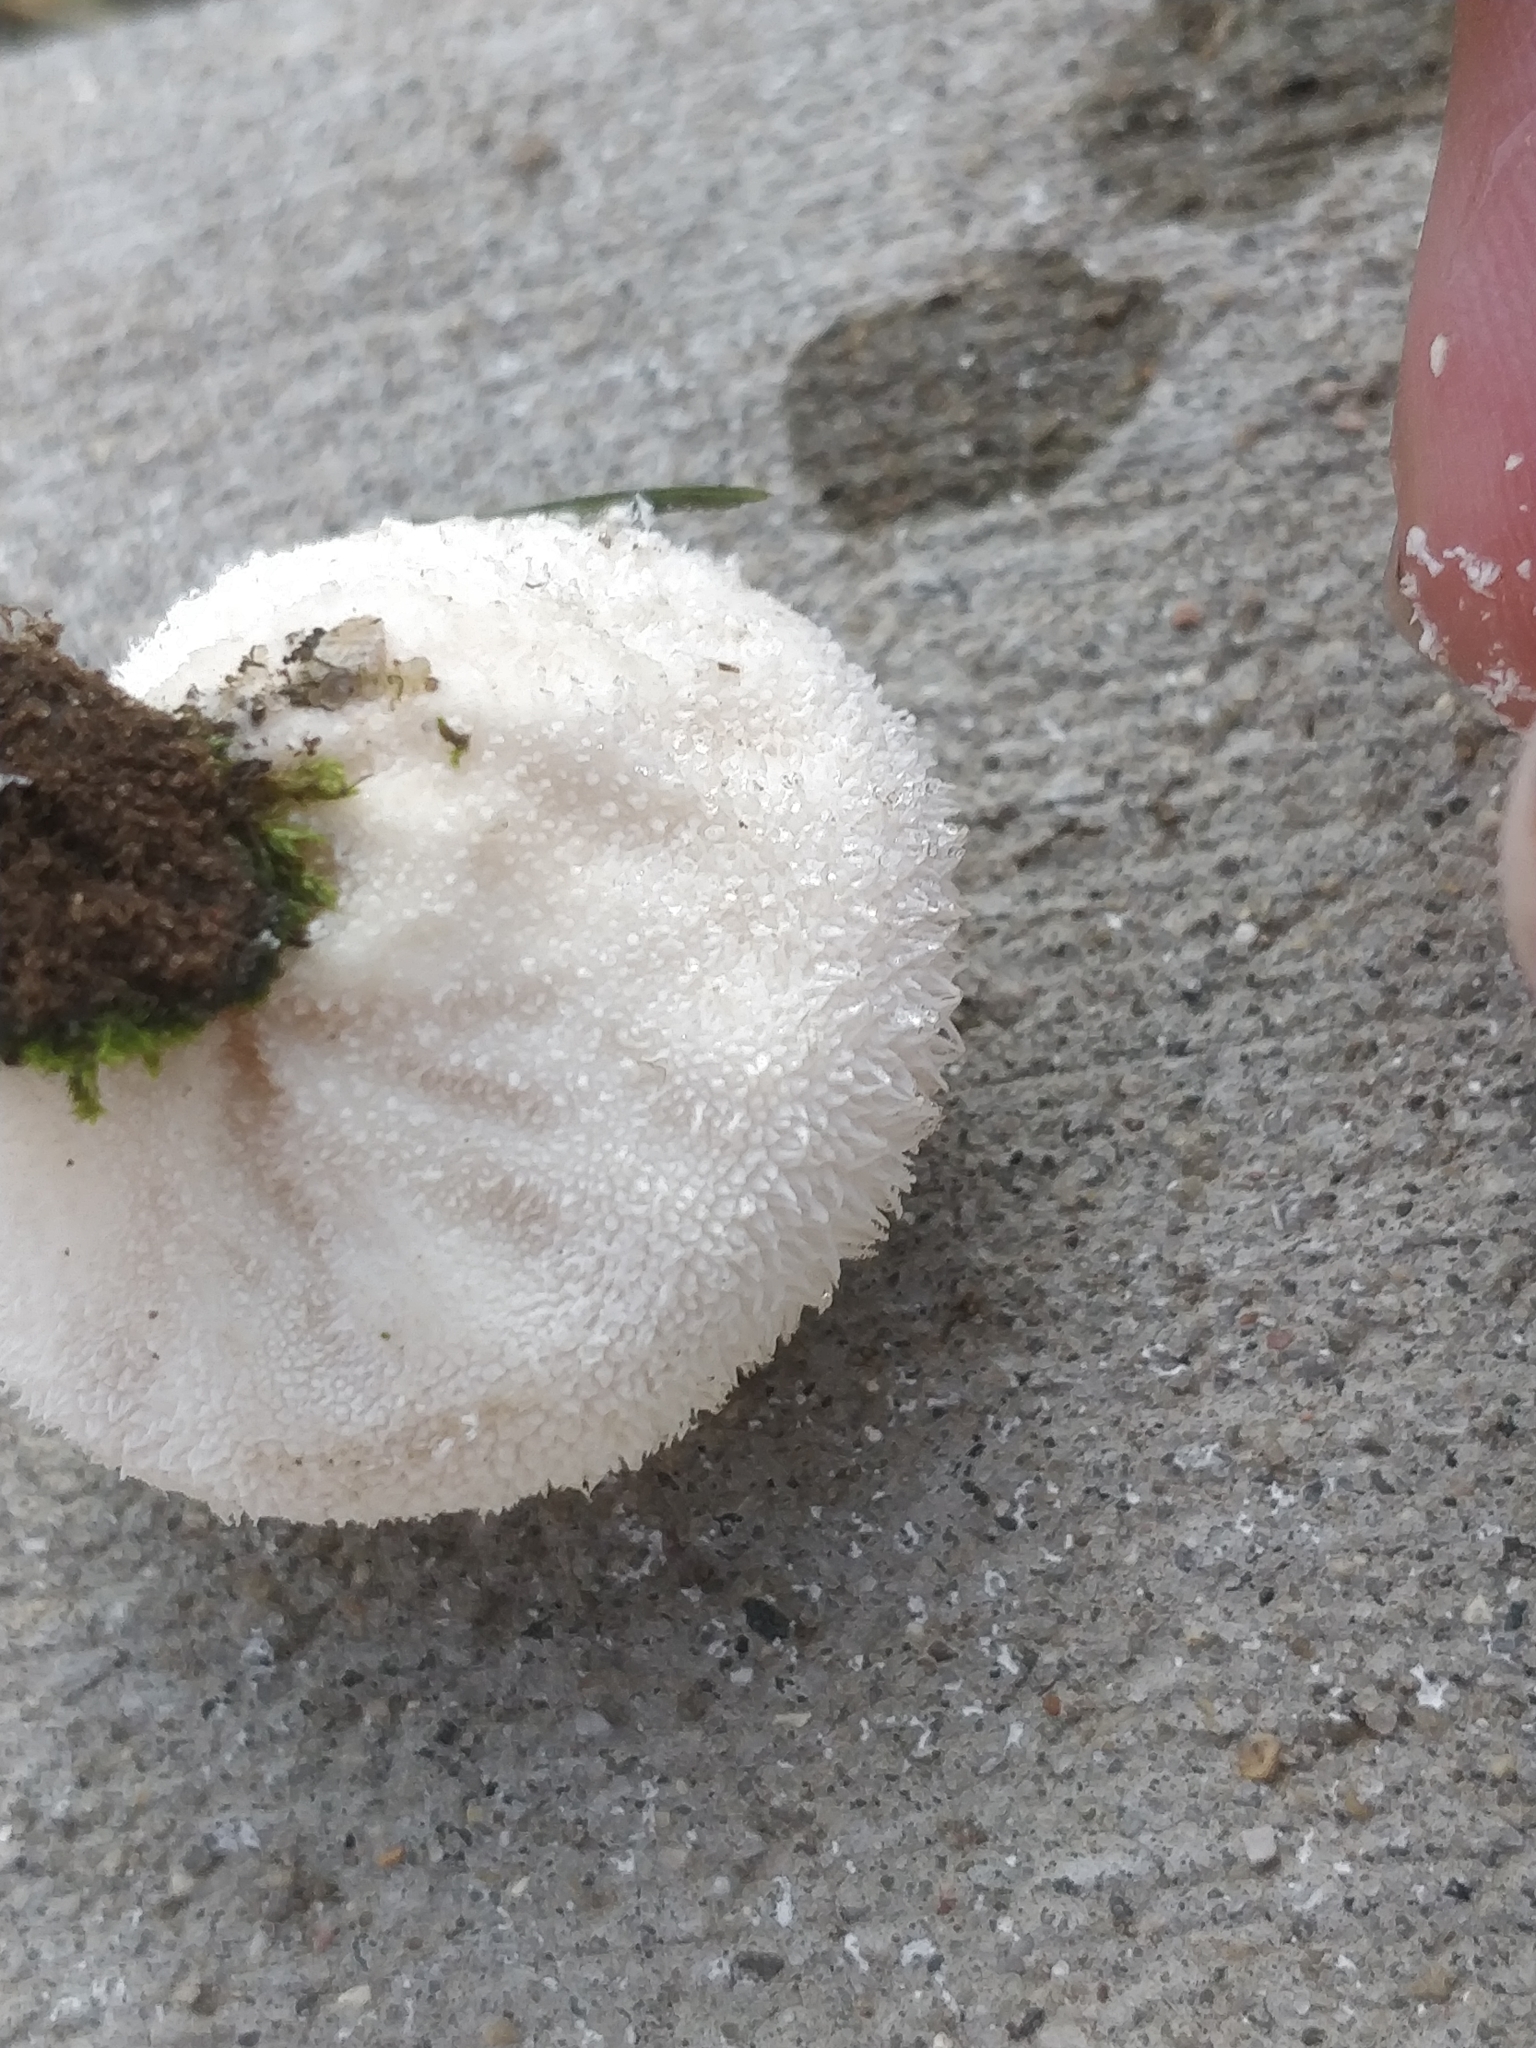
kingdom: Fungi
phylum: Basidiomycota
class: Agaricomycetes
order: Agaricales
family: Agaricaceae
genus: Lycoperdon
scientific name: Lycoperdon marginatum
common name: Peeling puffball
